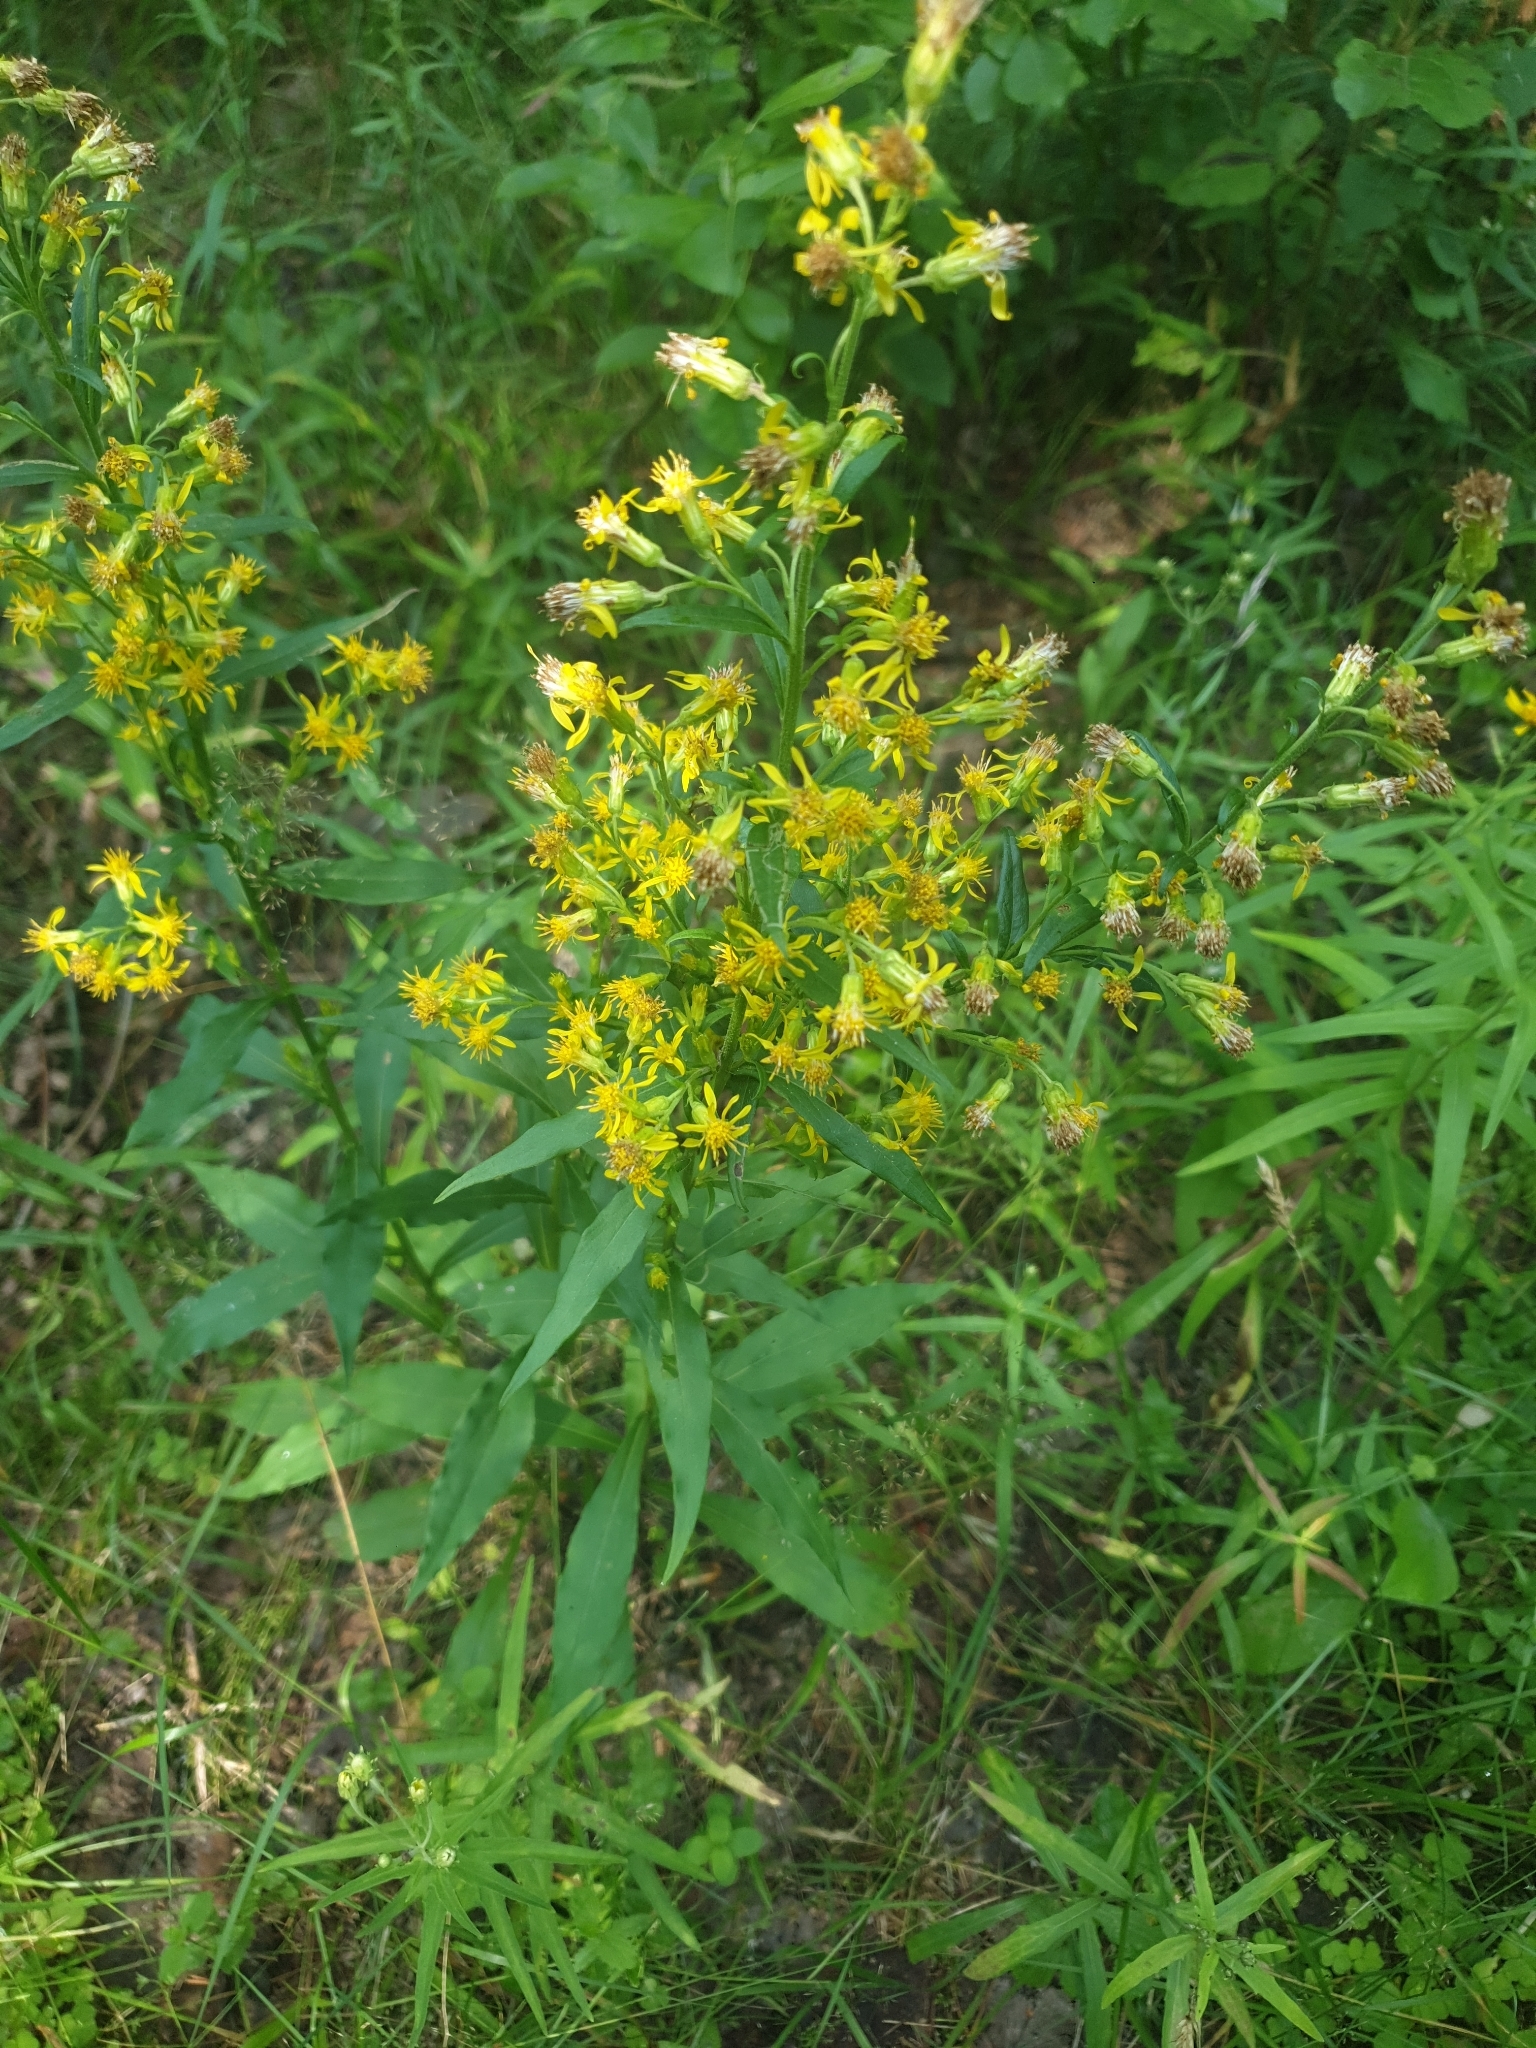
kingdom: Plantae
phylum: Tracheophyta
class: Magnoliopsida
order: Asterales
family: Asteraceae
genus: Solidago
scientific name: Solidago virgaurea
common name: Goldenrod
